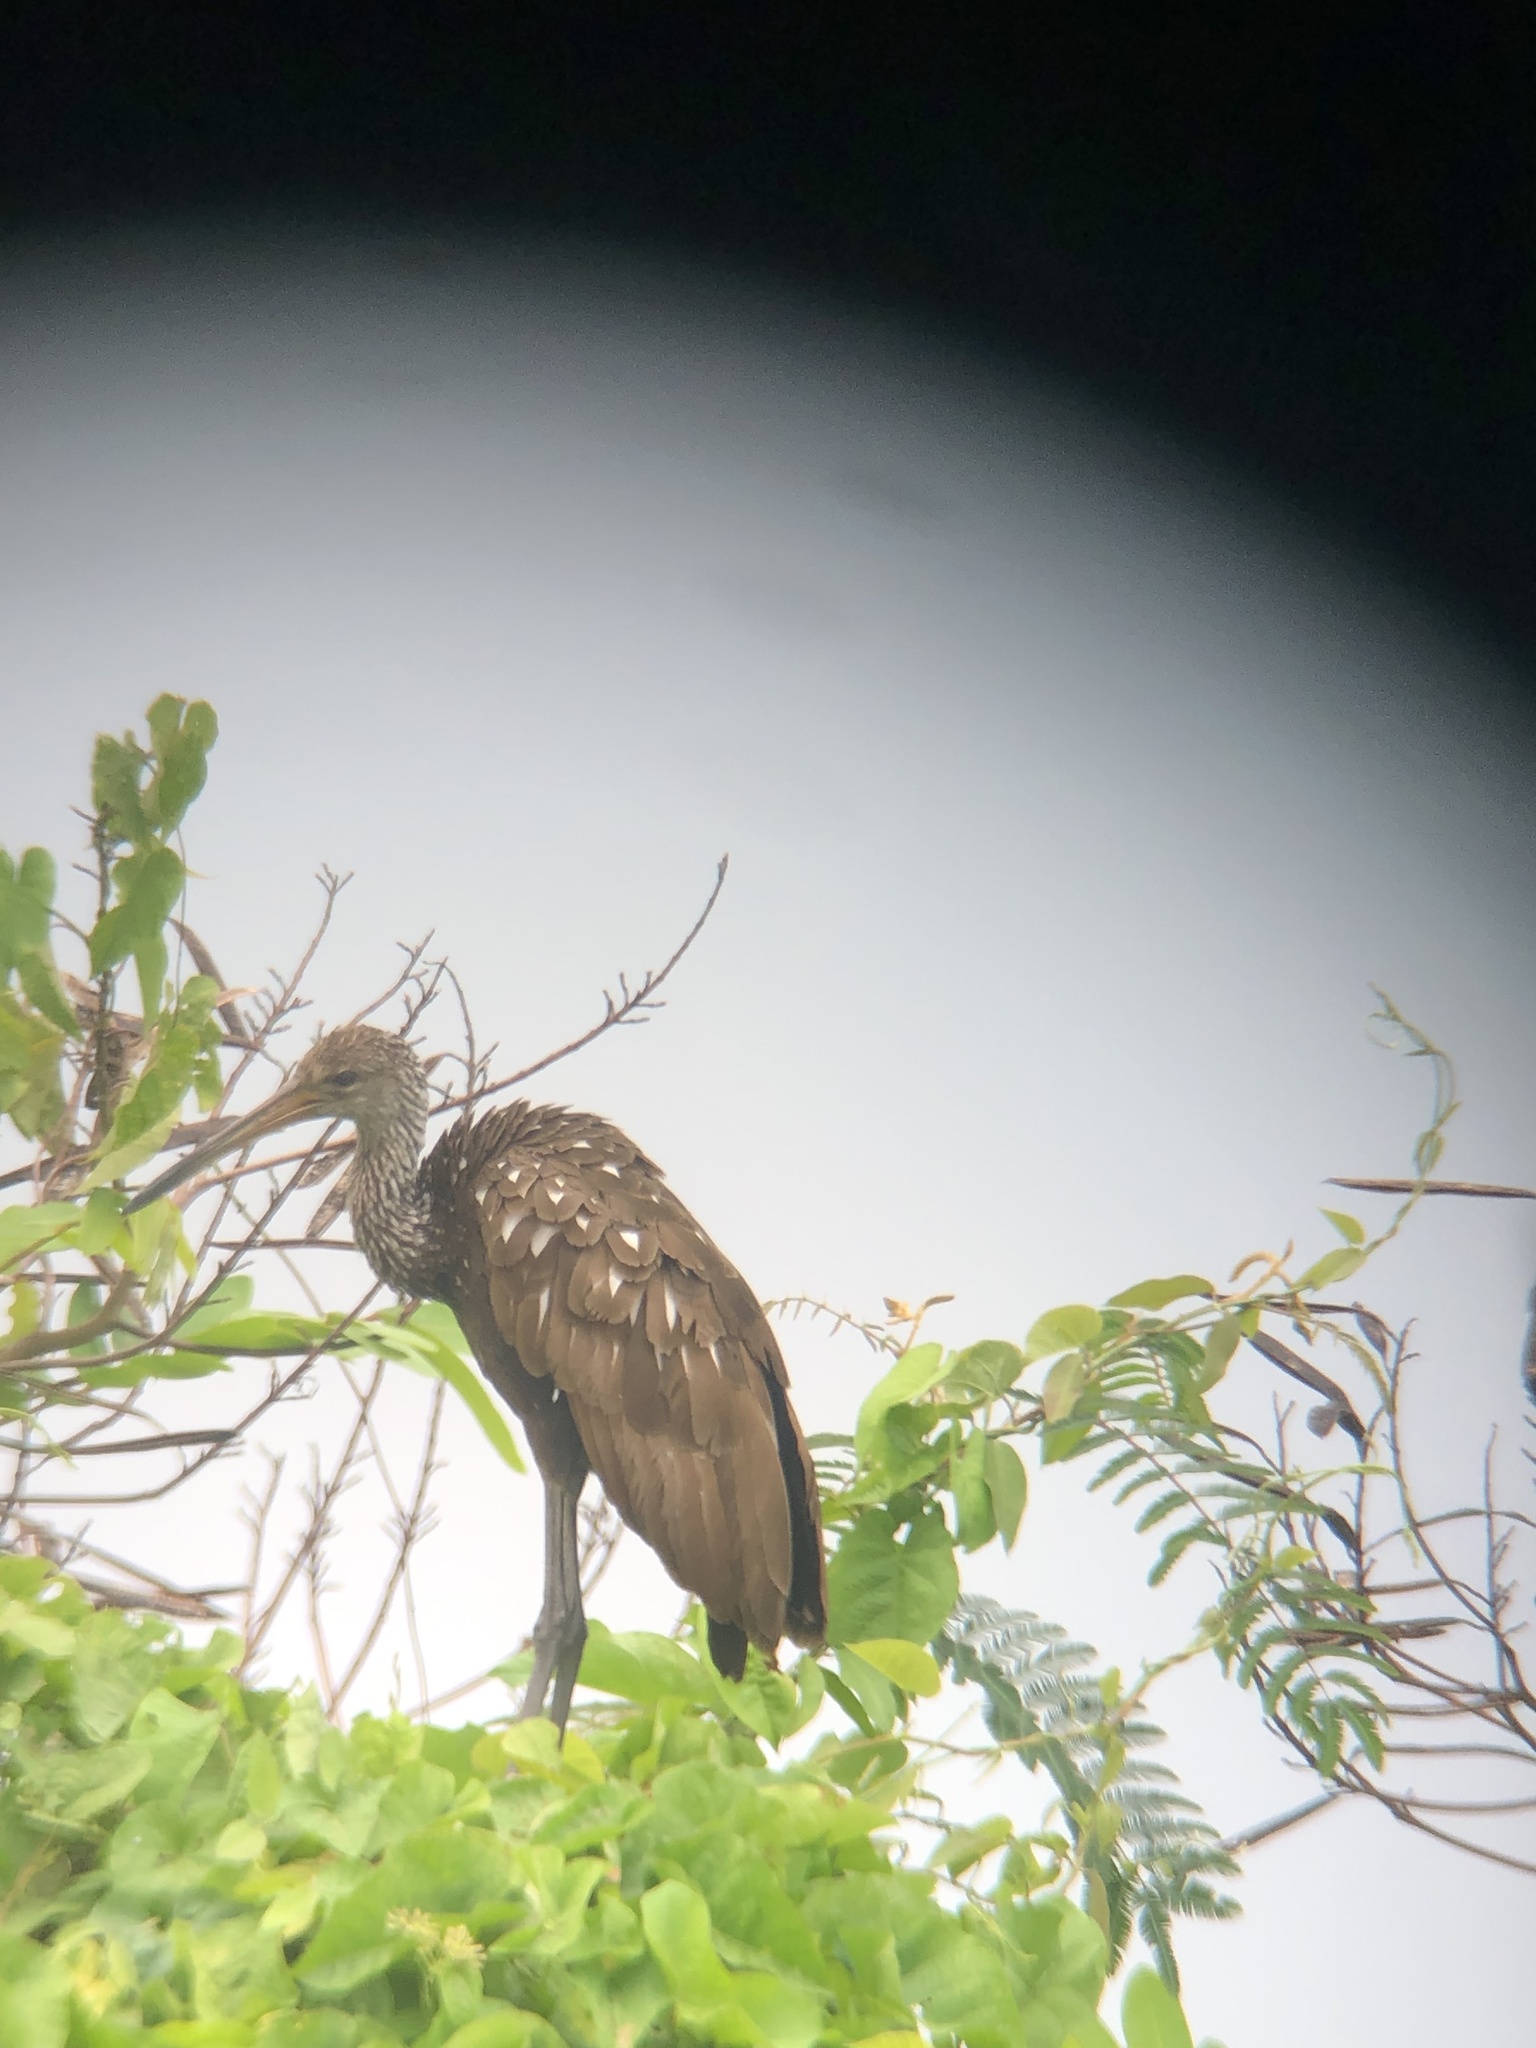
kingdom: Animalia
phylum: Chordata
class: Aves
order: Gruiformes
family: Aramidae
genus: Aramus
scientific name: Aramus guarauna
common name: Limpkin
